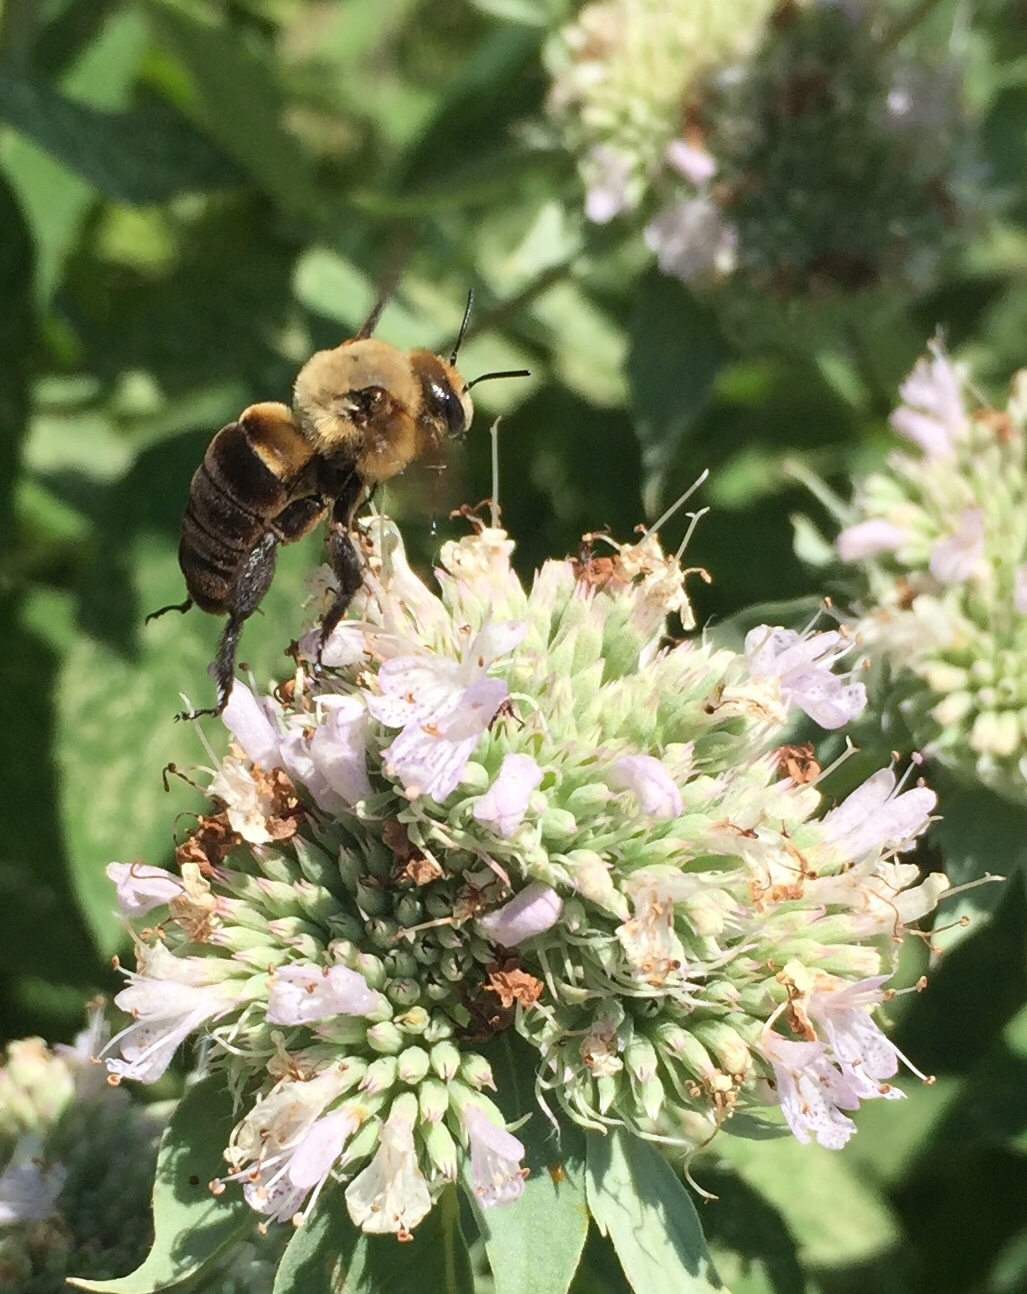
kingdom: Animalia
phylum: Arthropoda
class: Insecta
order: Hymenoptera
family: Apidae
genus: Ptilothrix
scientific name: Ptilothrix bombiformis
